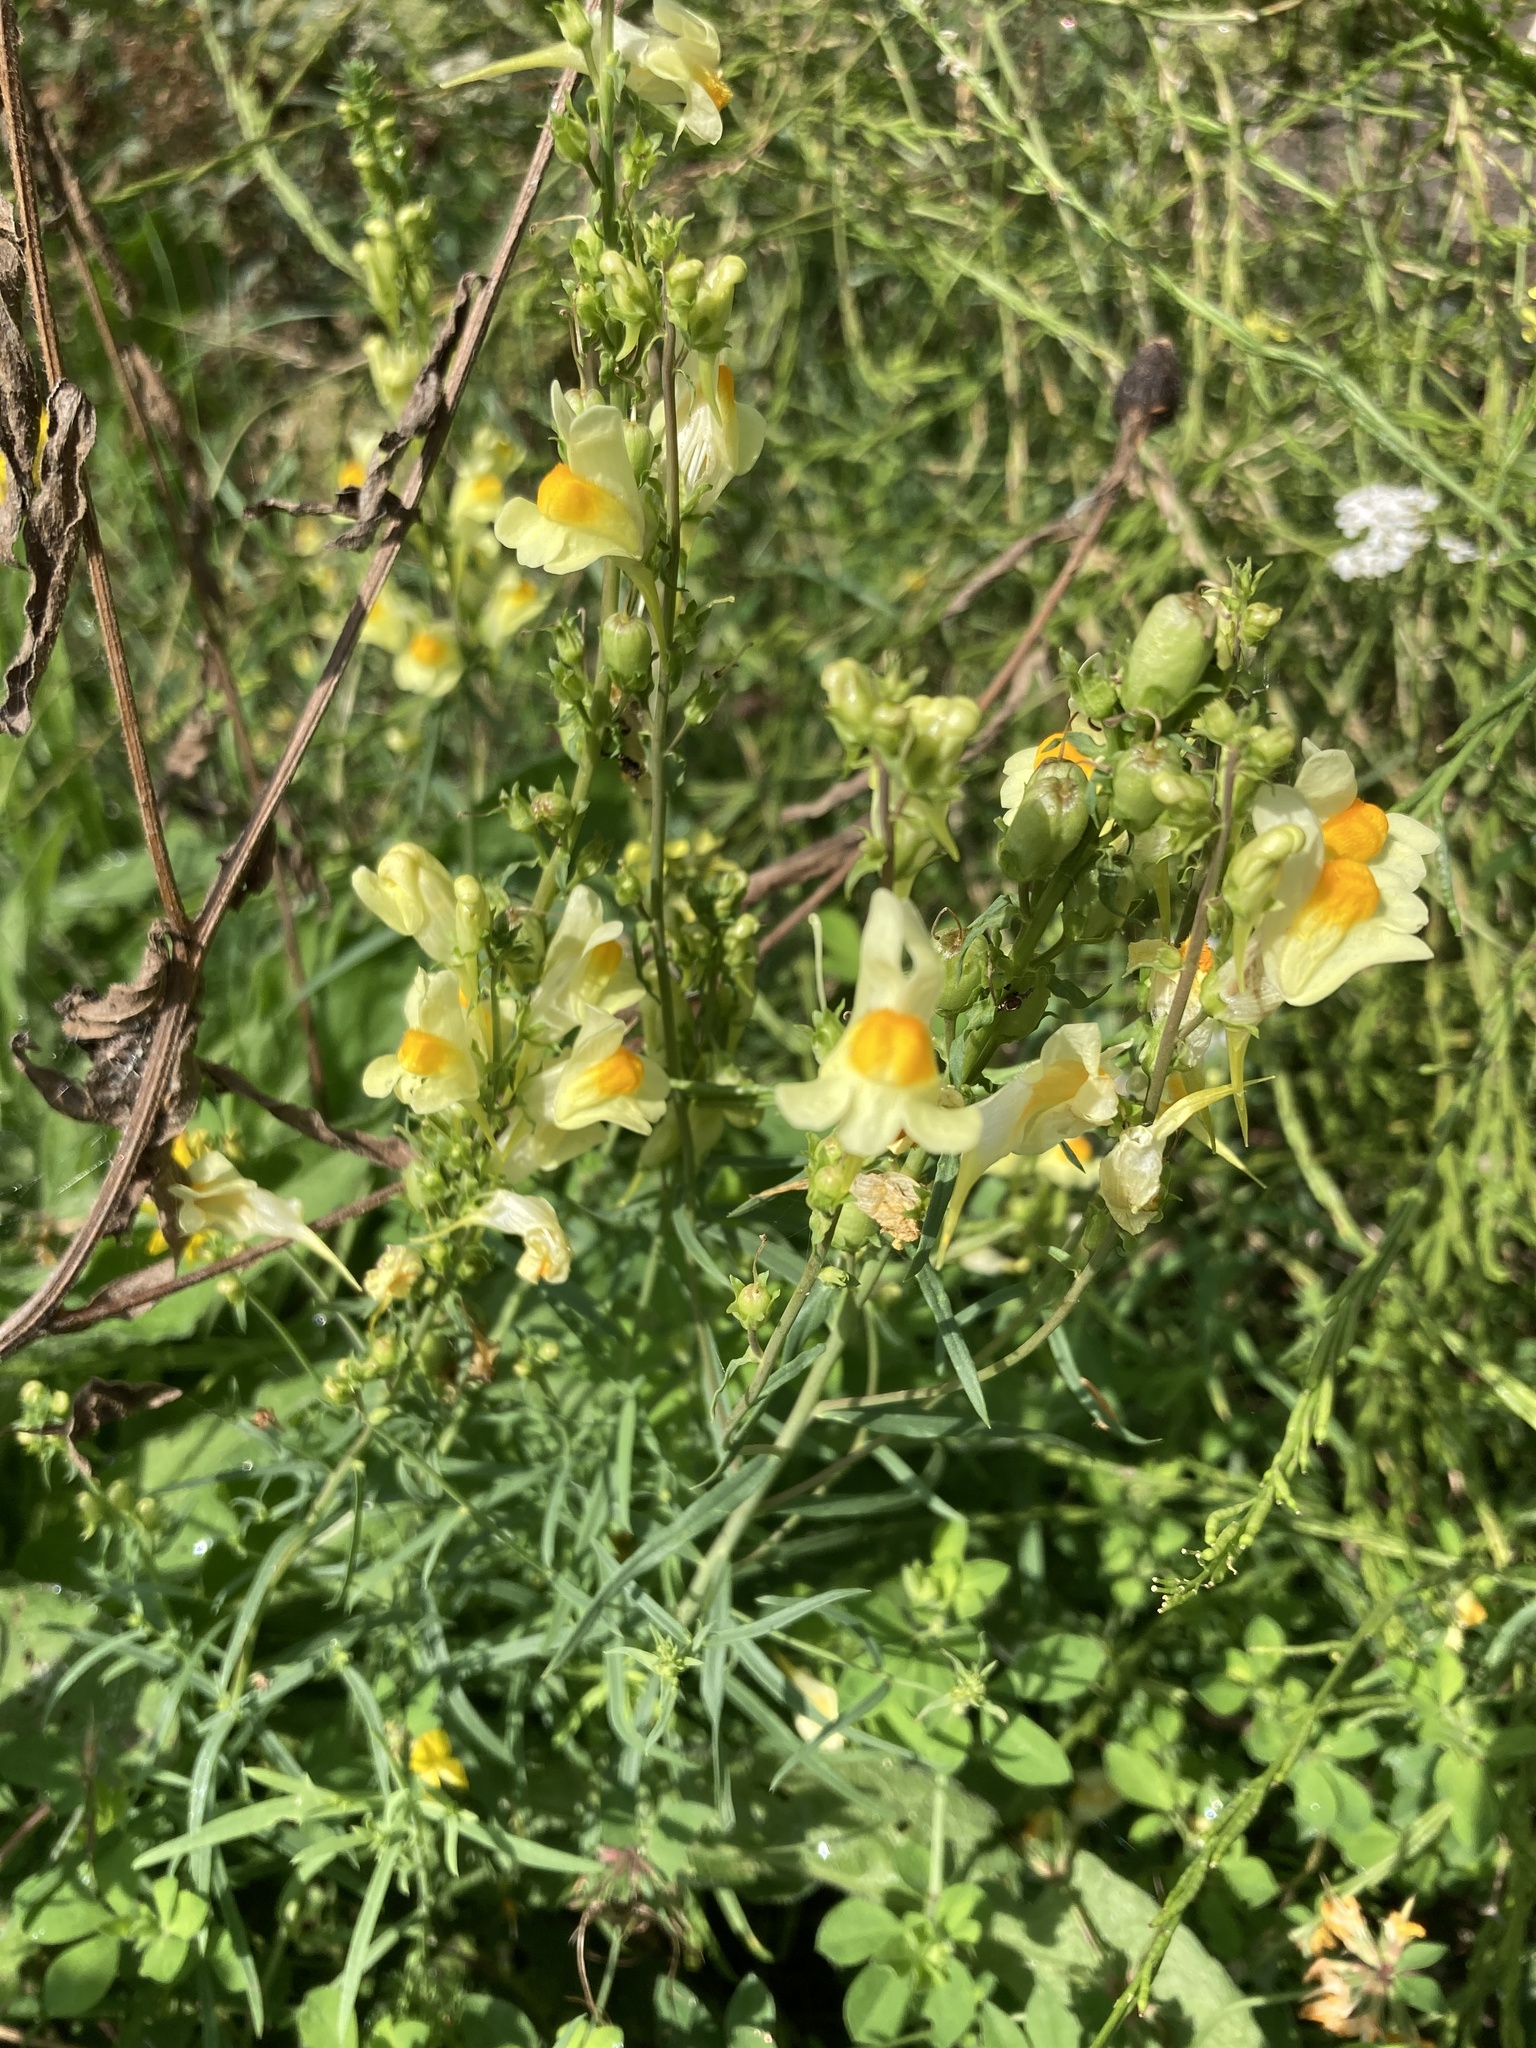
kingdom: Plantae
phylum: Tracheophyta
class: Magnoliopsida
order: Lamiales
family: Plantaginaceae
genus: Linaria
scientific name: Linaria vulgaris
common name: Butter and eggs
